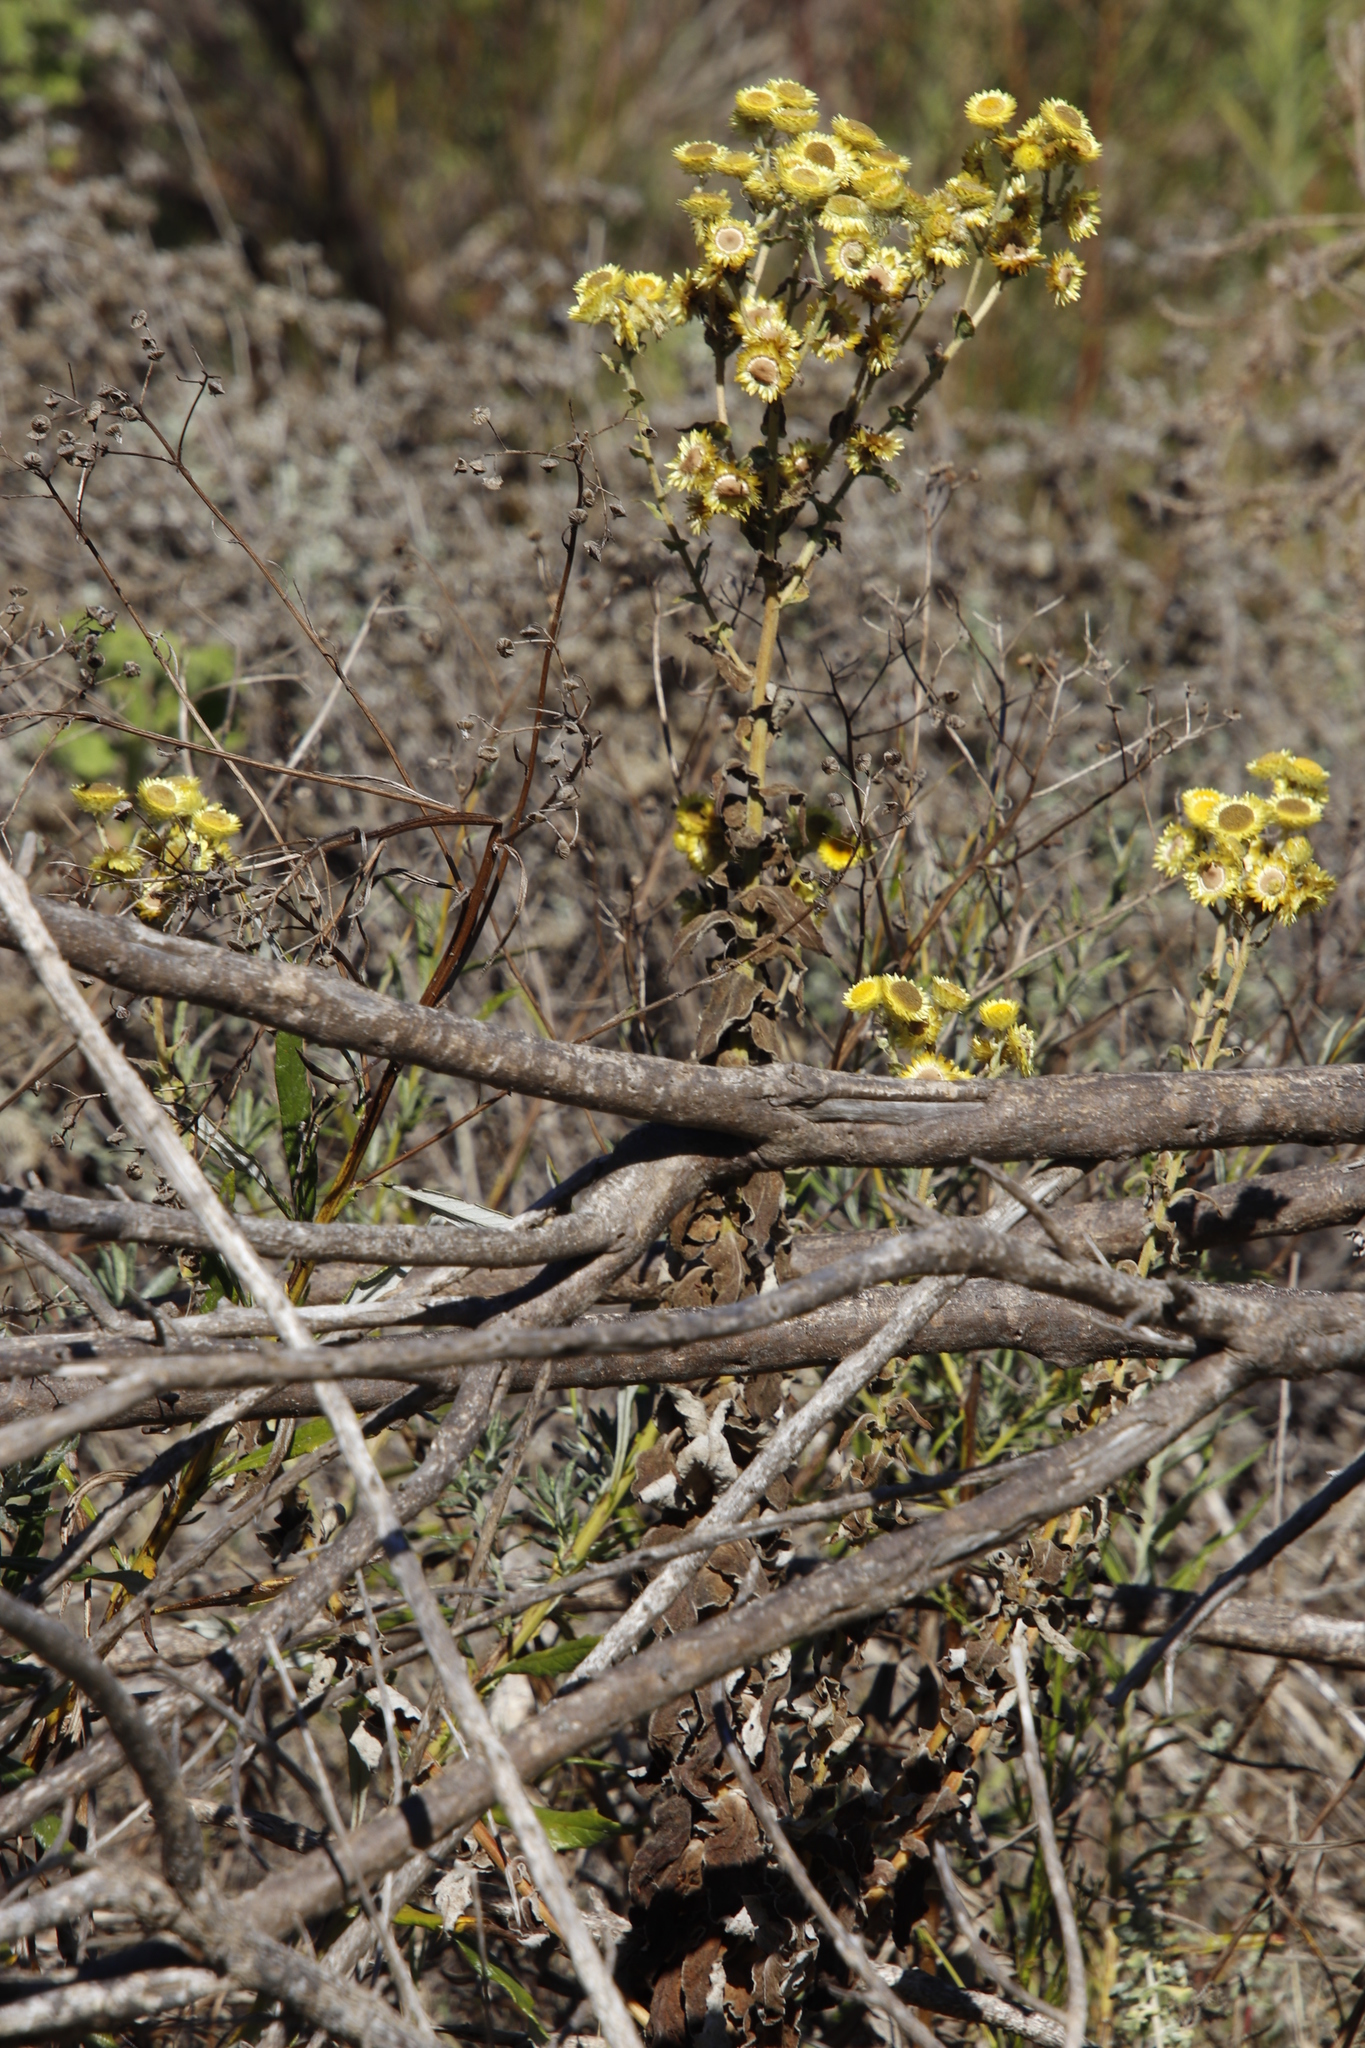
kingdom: Plantae
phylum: Tracheophyta
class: Magnoliopsida
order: Asterales
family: Asteraceae
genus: Helichrysum
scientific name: Helichrysum foetidum
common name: Stinking everlasting
